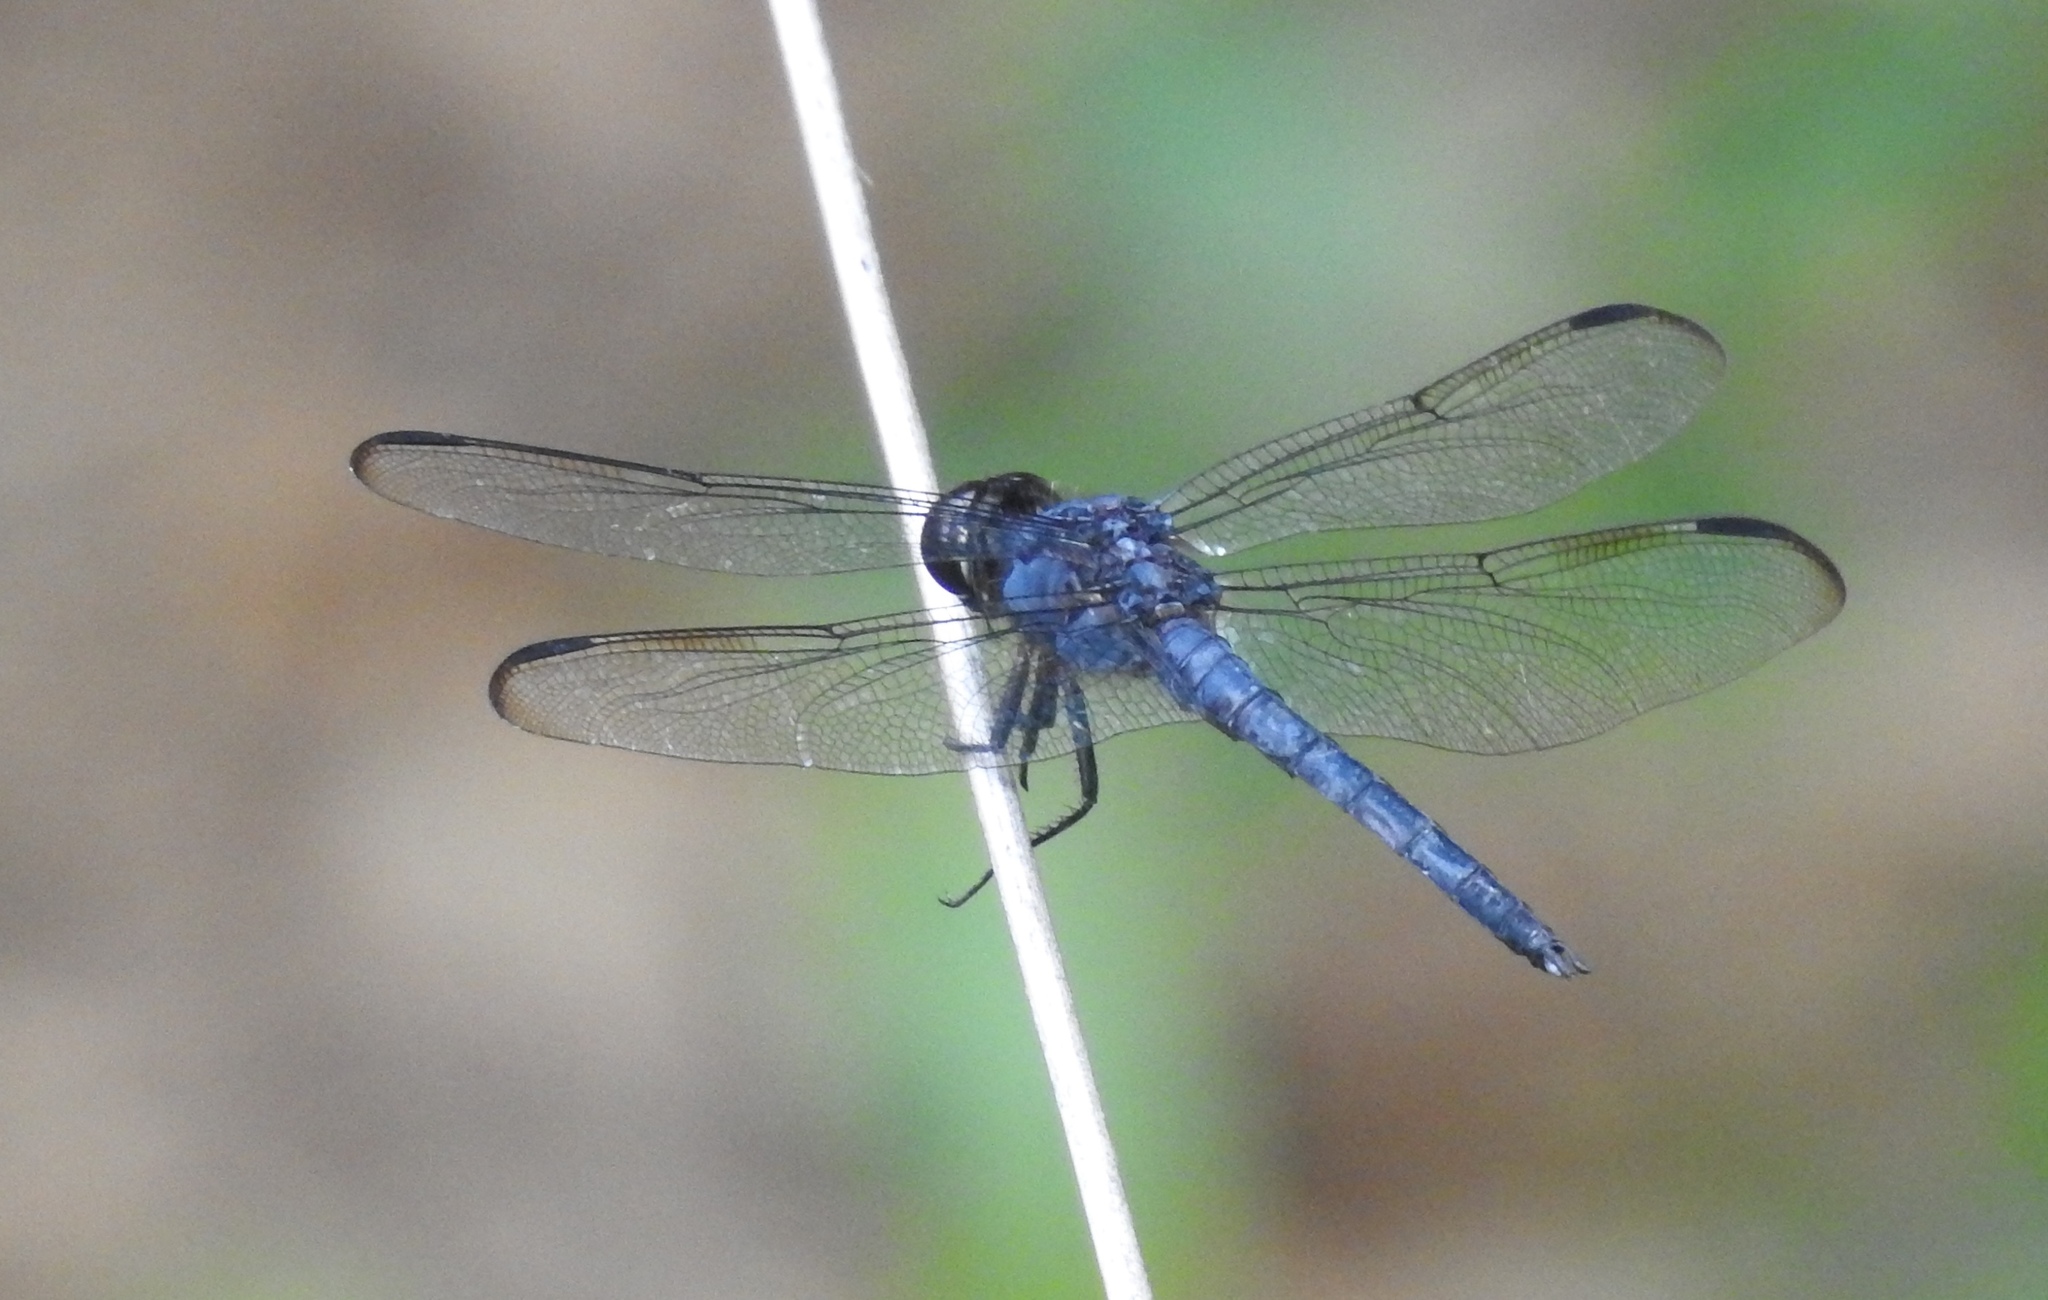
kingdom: Animalia
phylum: Arthropoda
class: Insecta
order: Odonata
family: Libellulidae
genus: Libellula
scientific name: Libellula incesta
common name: Slaty skimmer
